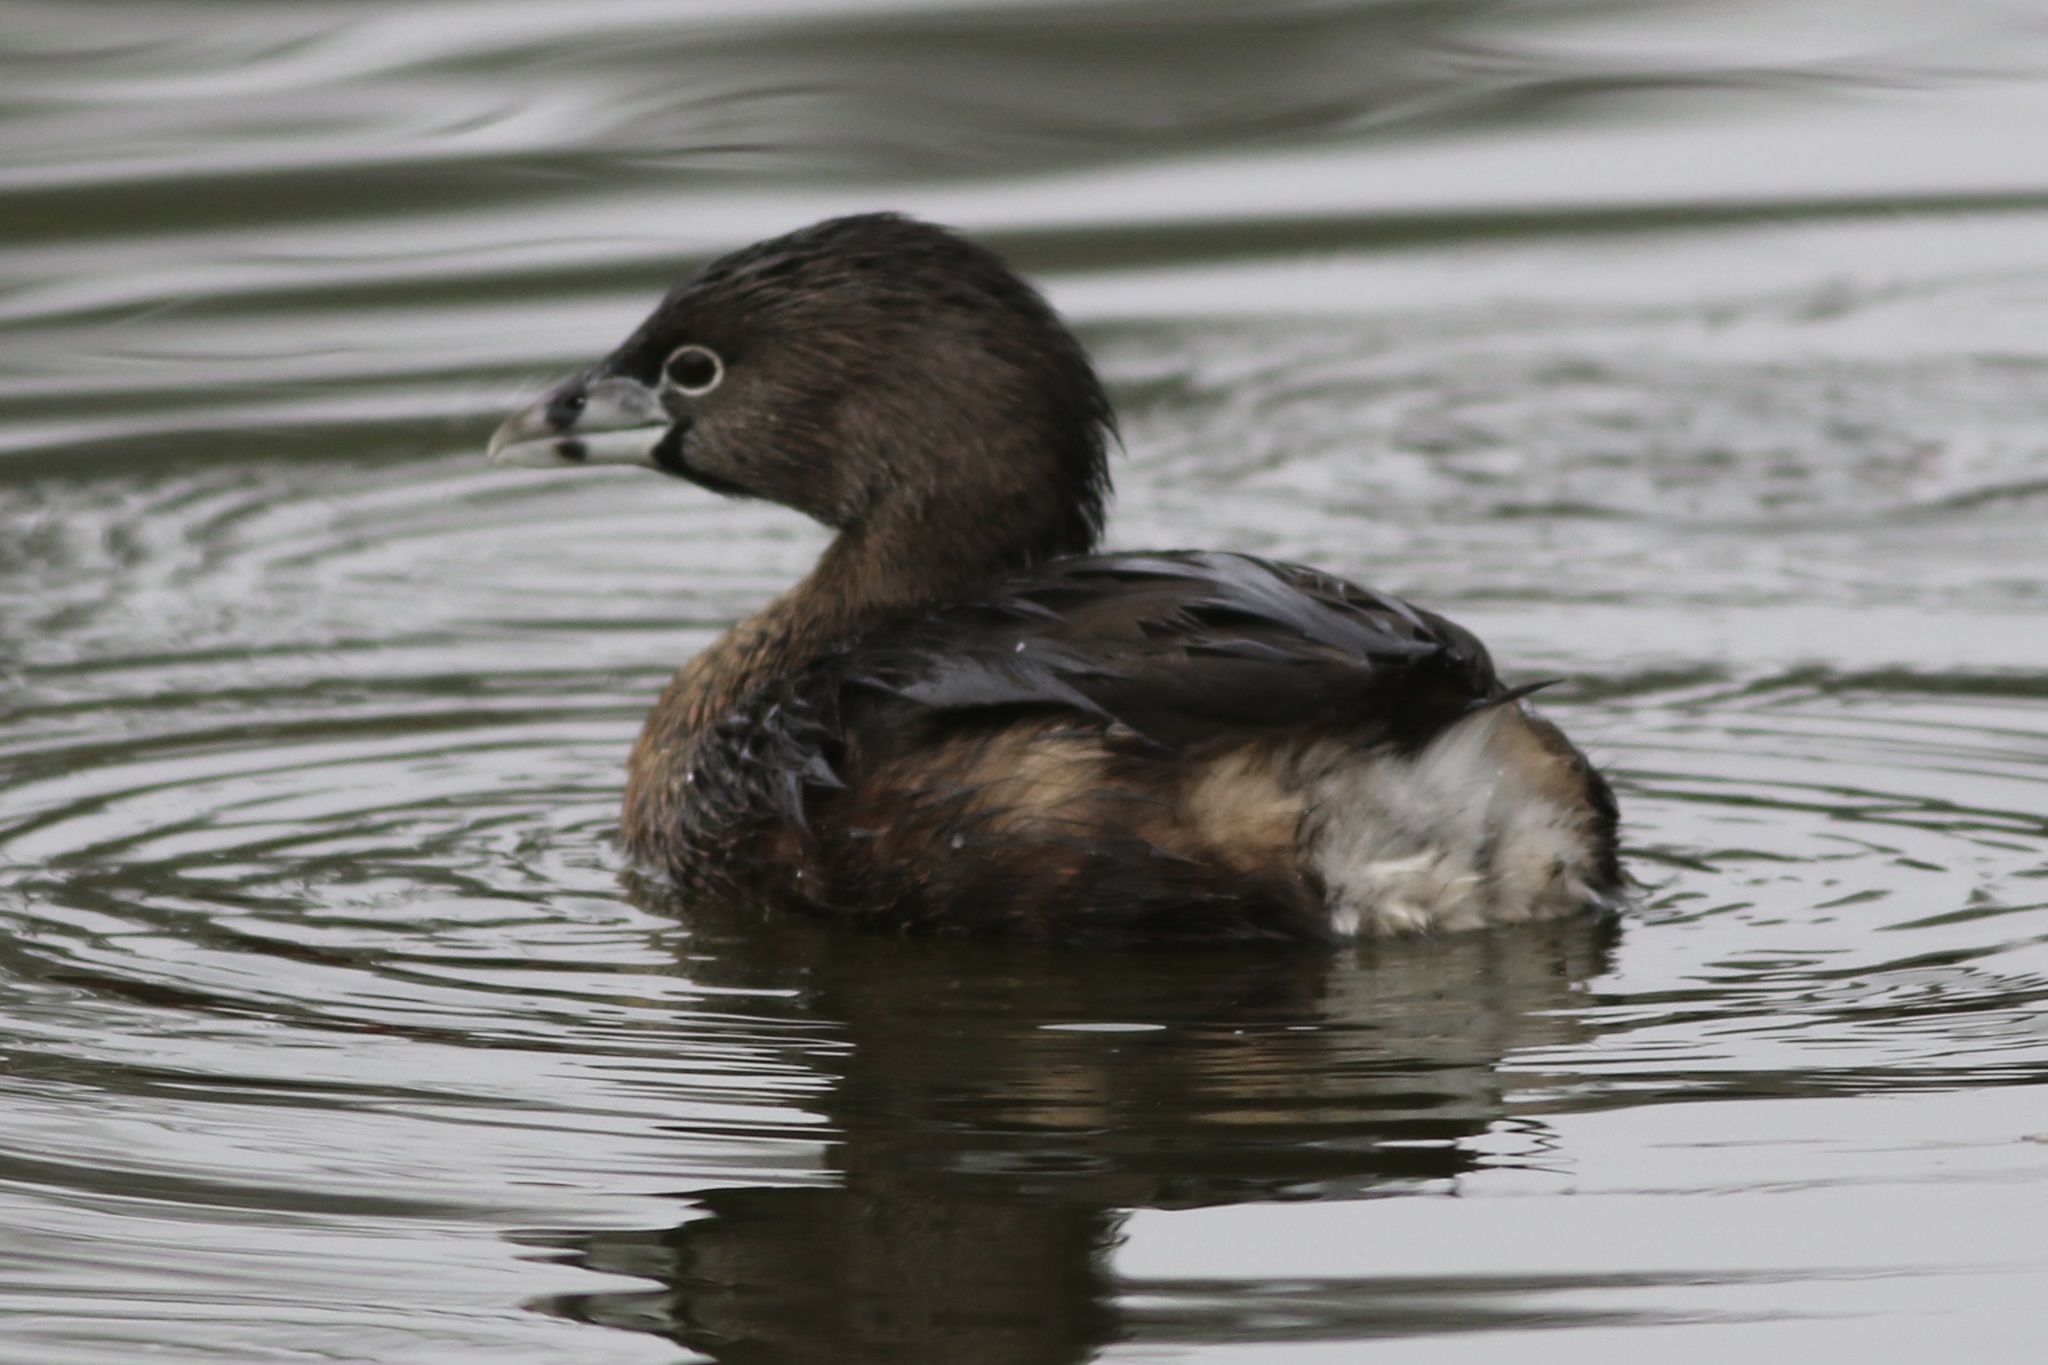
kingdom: Animalia
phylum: Chordata
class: Aves
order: Podicipediformes
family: Podicipedidae
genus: Podilymbus
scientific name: Podilymbus podiceps
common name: Pied-billed grebe
